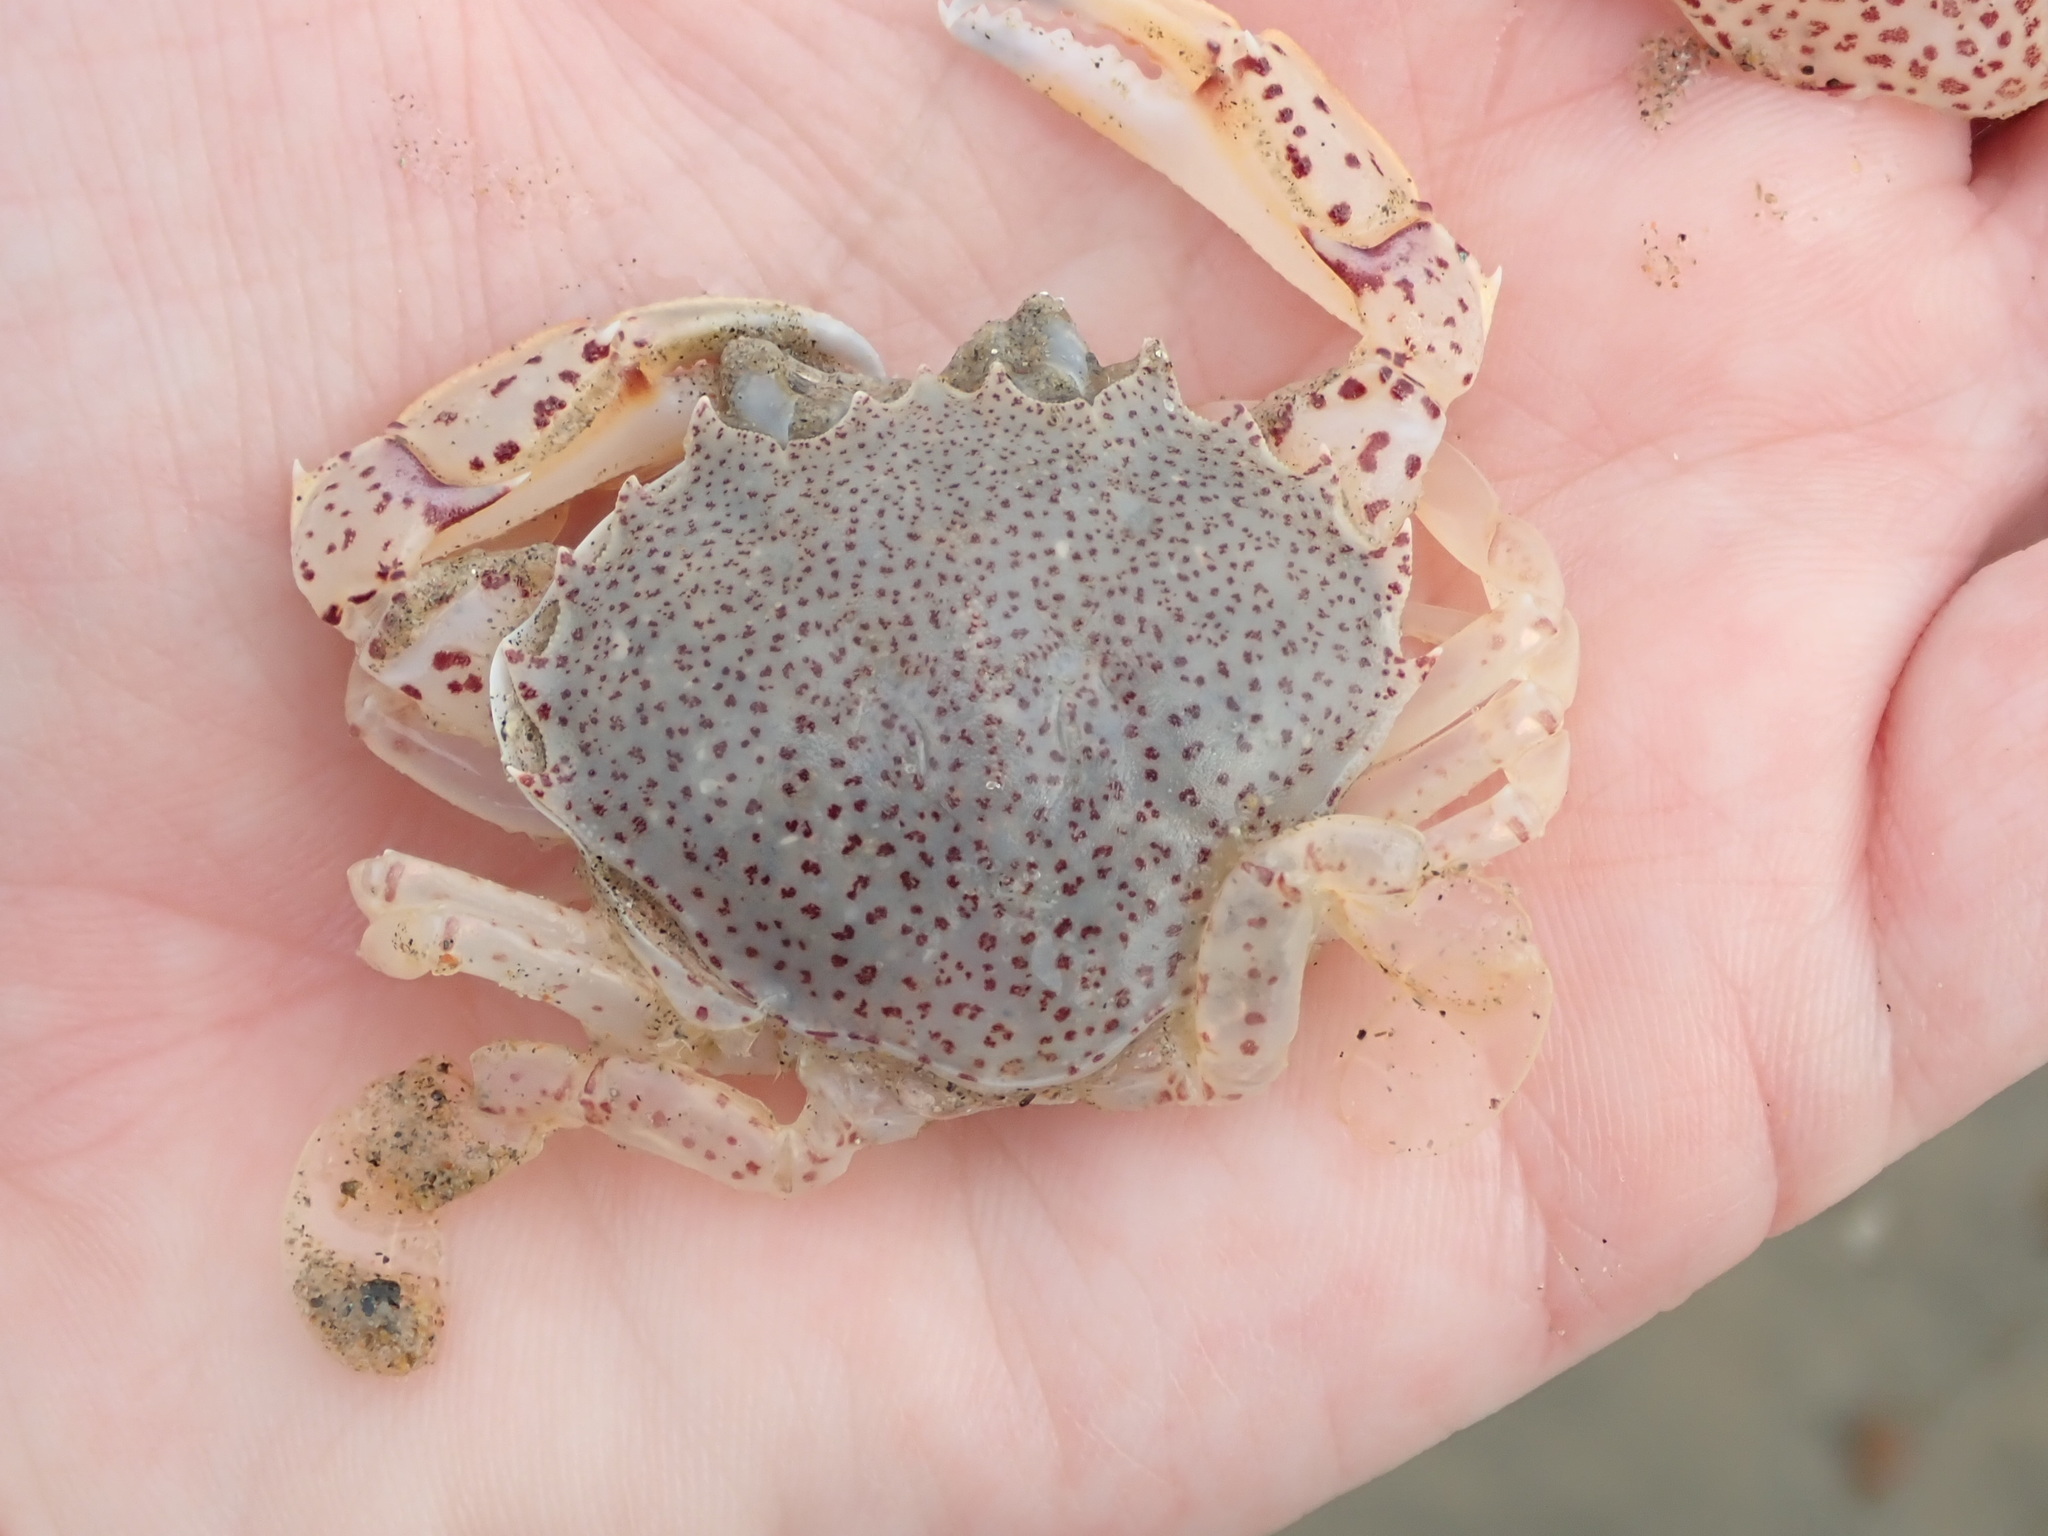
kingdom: Animalia
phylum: Arthropoda
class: Malacostraca
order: Decapoda
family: Ovalipidae
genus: Ovalipes
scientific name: Ovalipes ocellatus
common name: Lady crab
